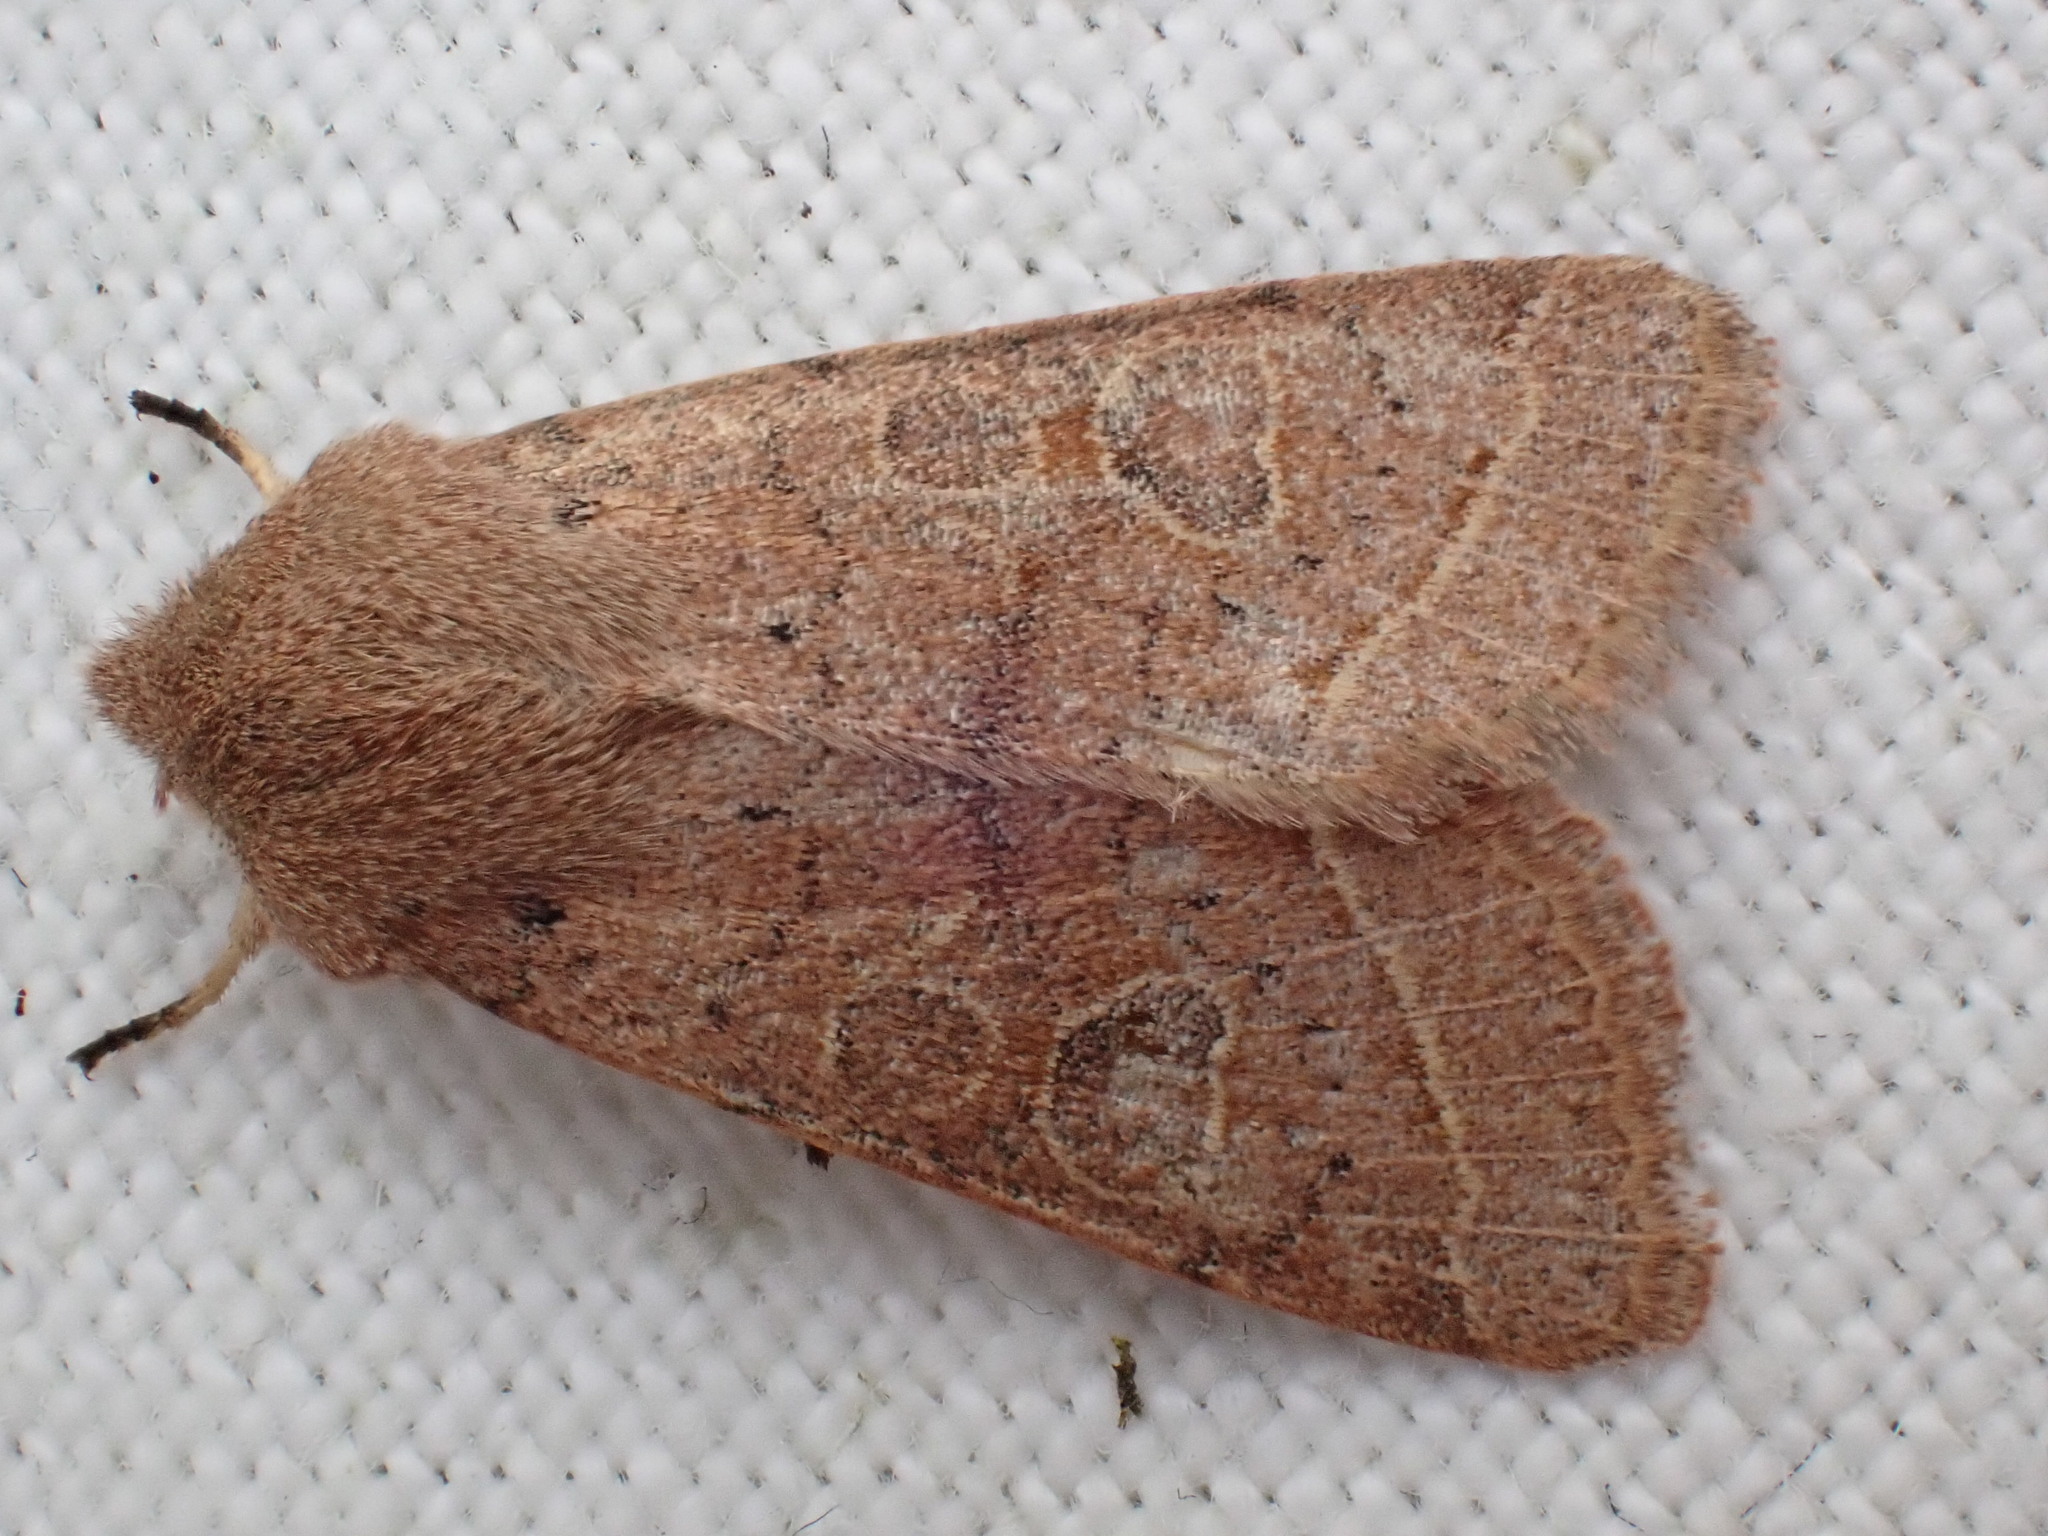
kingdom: Animalia
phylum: Arthropoda
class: Insecta
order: Lepidoptera
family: Noctuidae
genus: Orthosia
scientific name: Orthosia cerasi
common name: Common quaker
